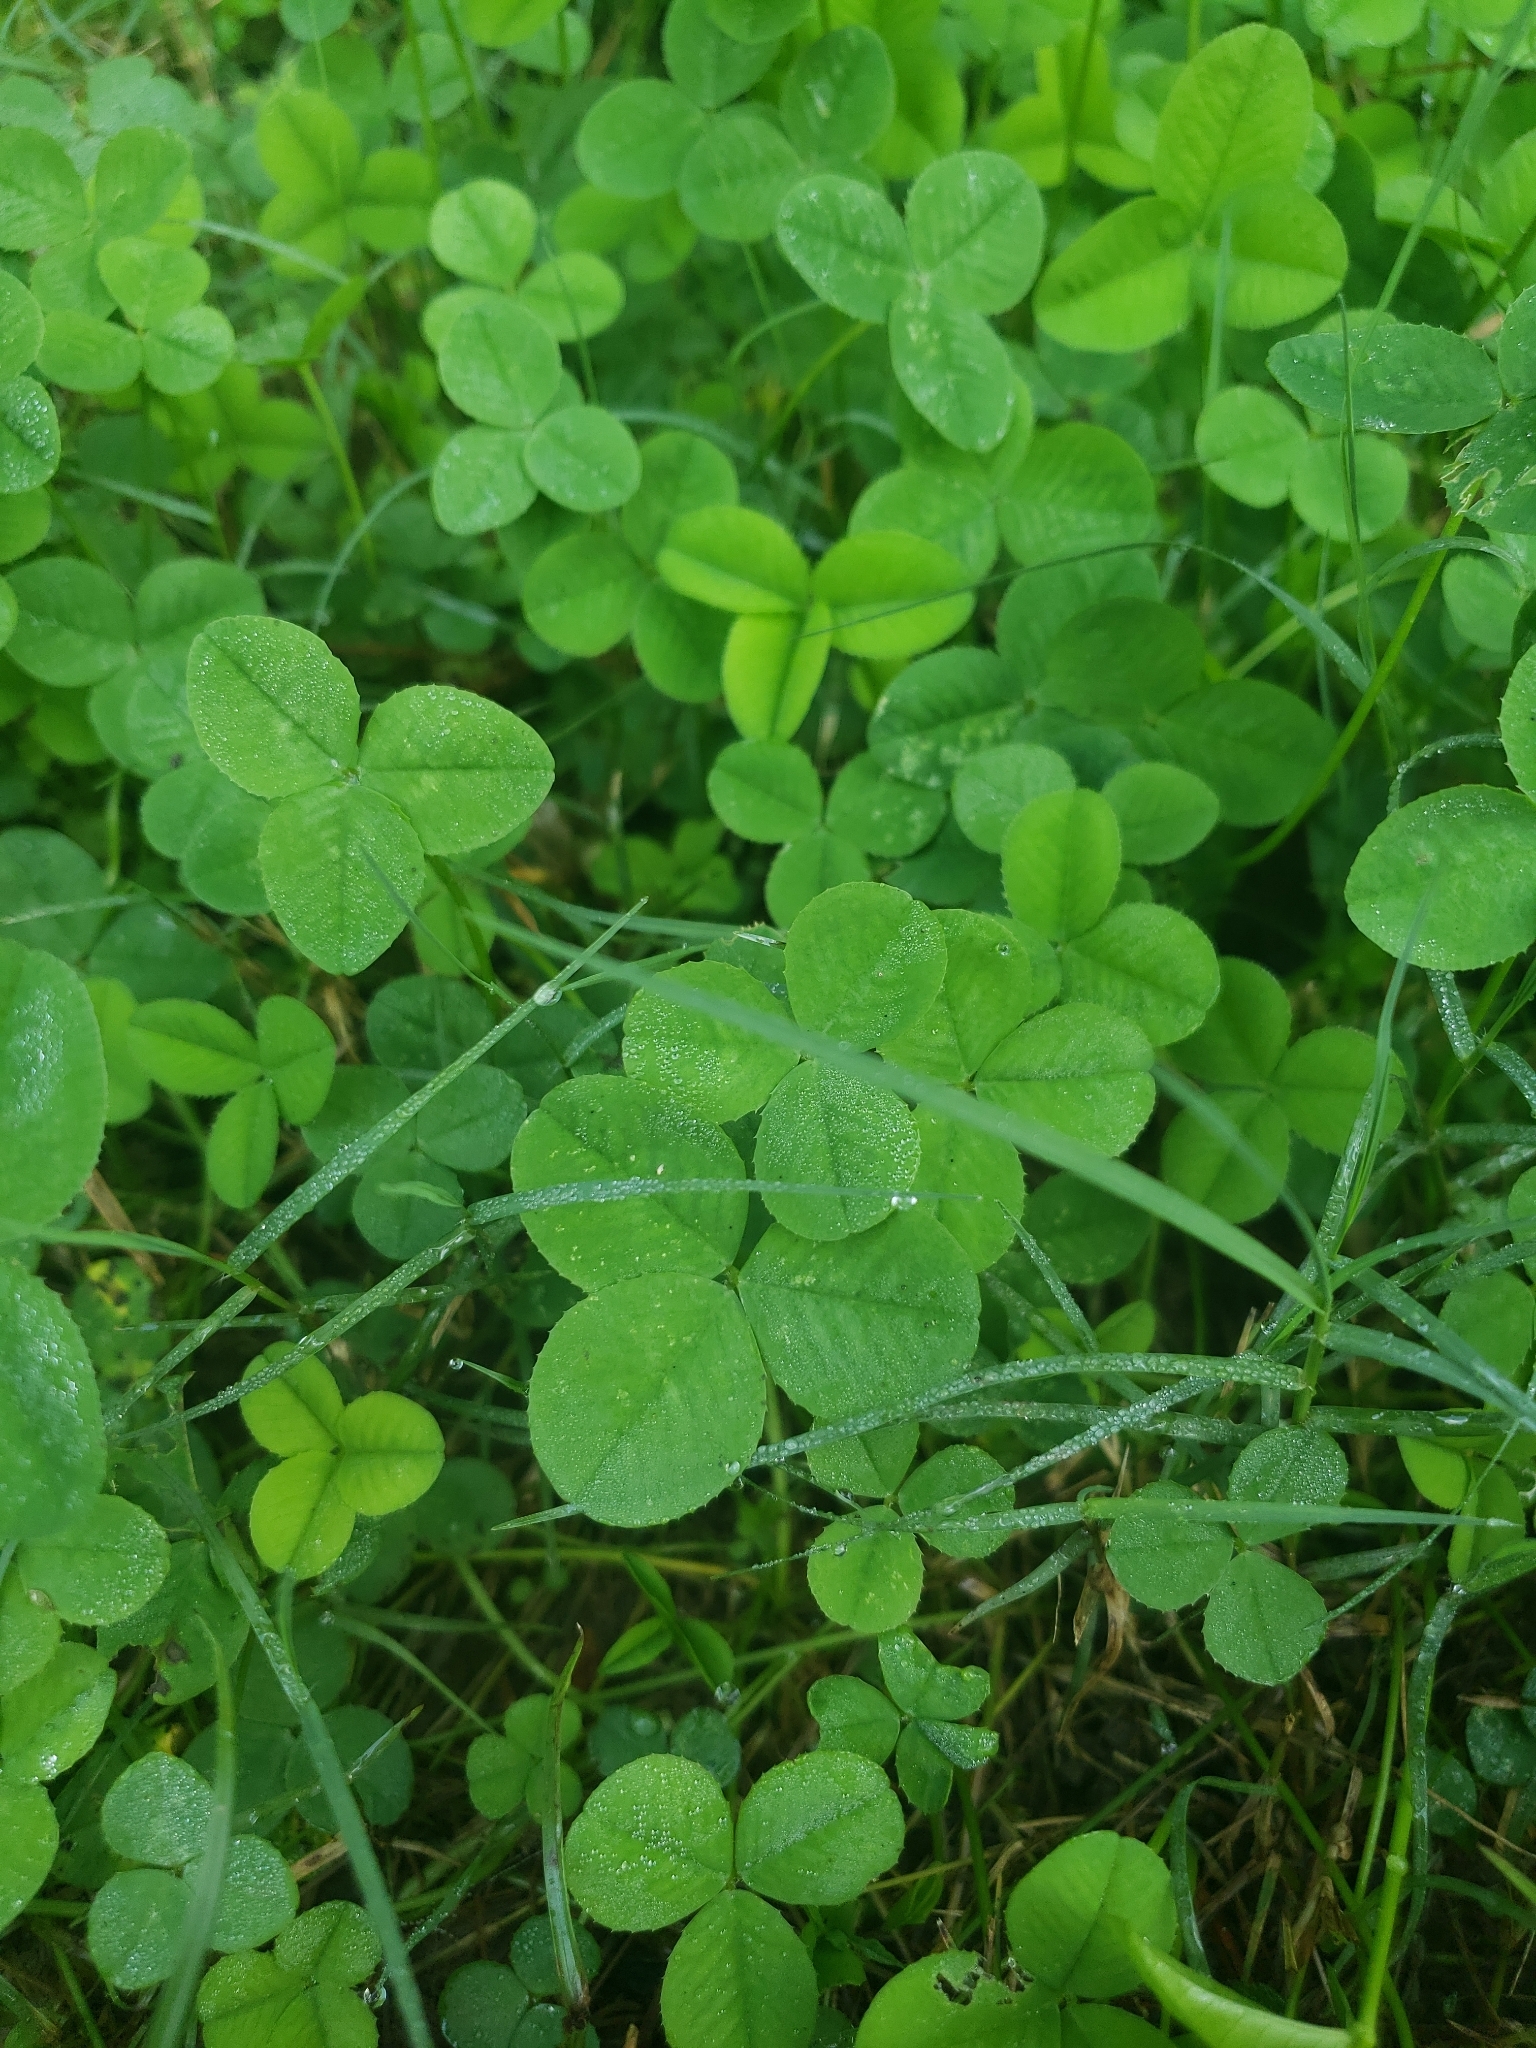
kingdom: Plantae
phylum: Tracheophyta
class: Magnoliopsida
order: Fabales
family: Fabaceae
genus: Trifolium
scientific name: Trifolium repens
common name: White clover
